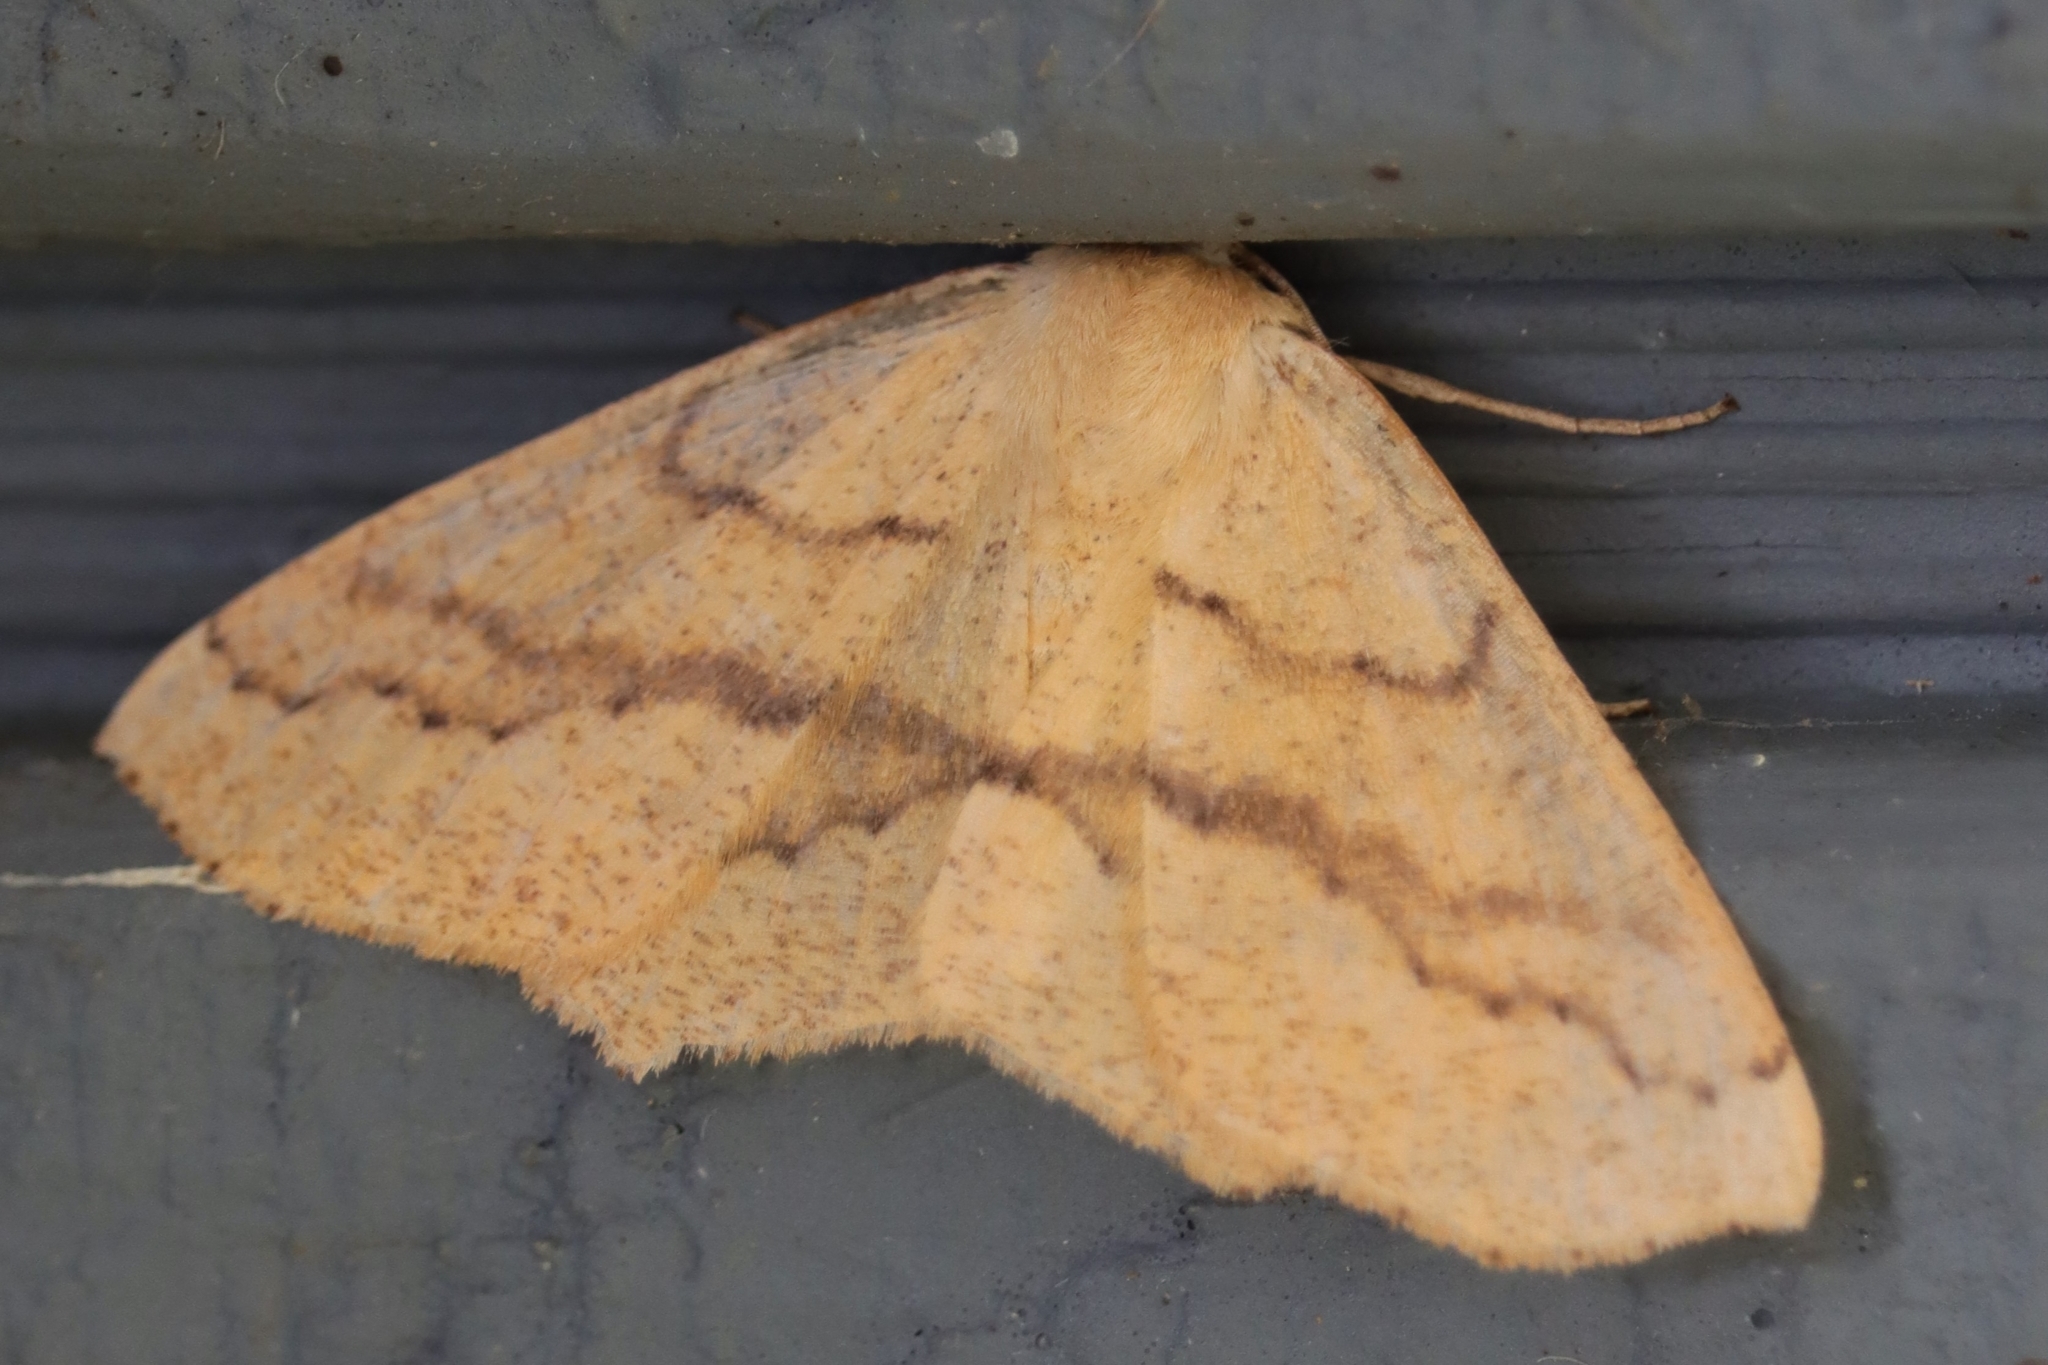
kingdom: Animalia
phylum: Arthropoda
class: Insecta
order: Lepidoptera
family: Geometridae
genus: Sabulodes
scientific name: Sabulodes aegrotata
